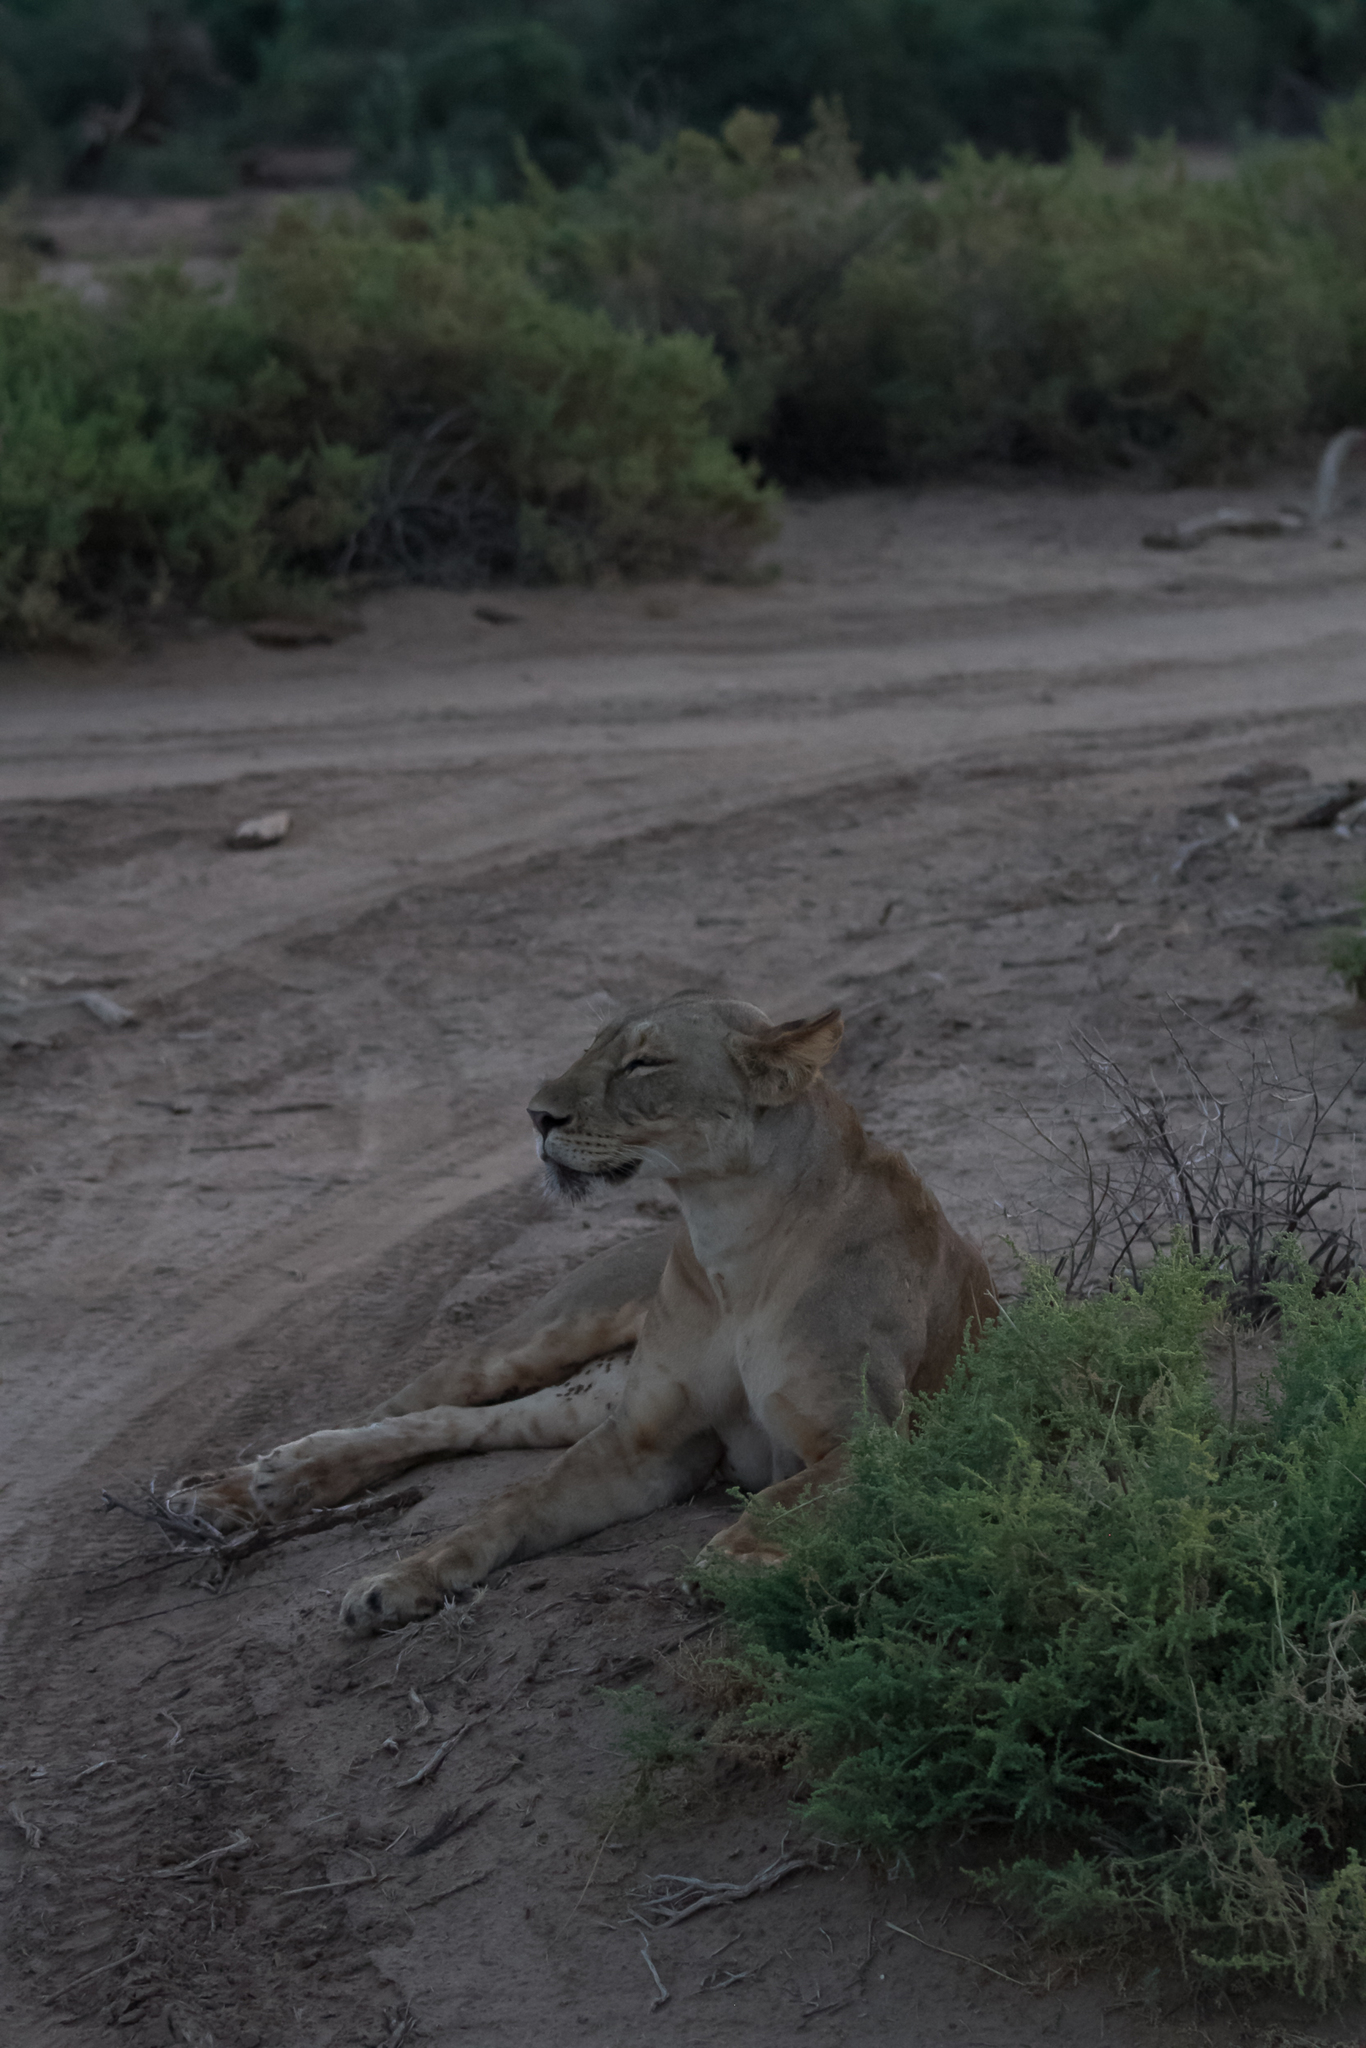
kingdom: Animalia
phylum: Chordata
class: Mammalia
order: Carnivora
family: Felidae
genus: Panthera
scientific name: Panthera leo
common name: Lion
